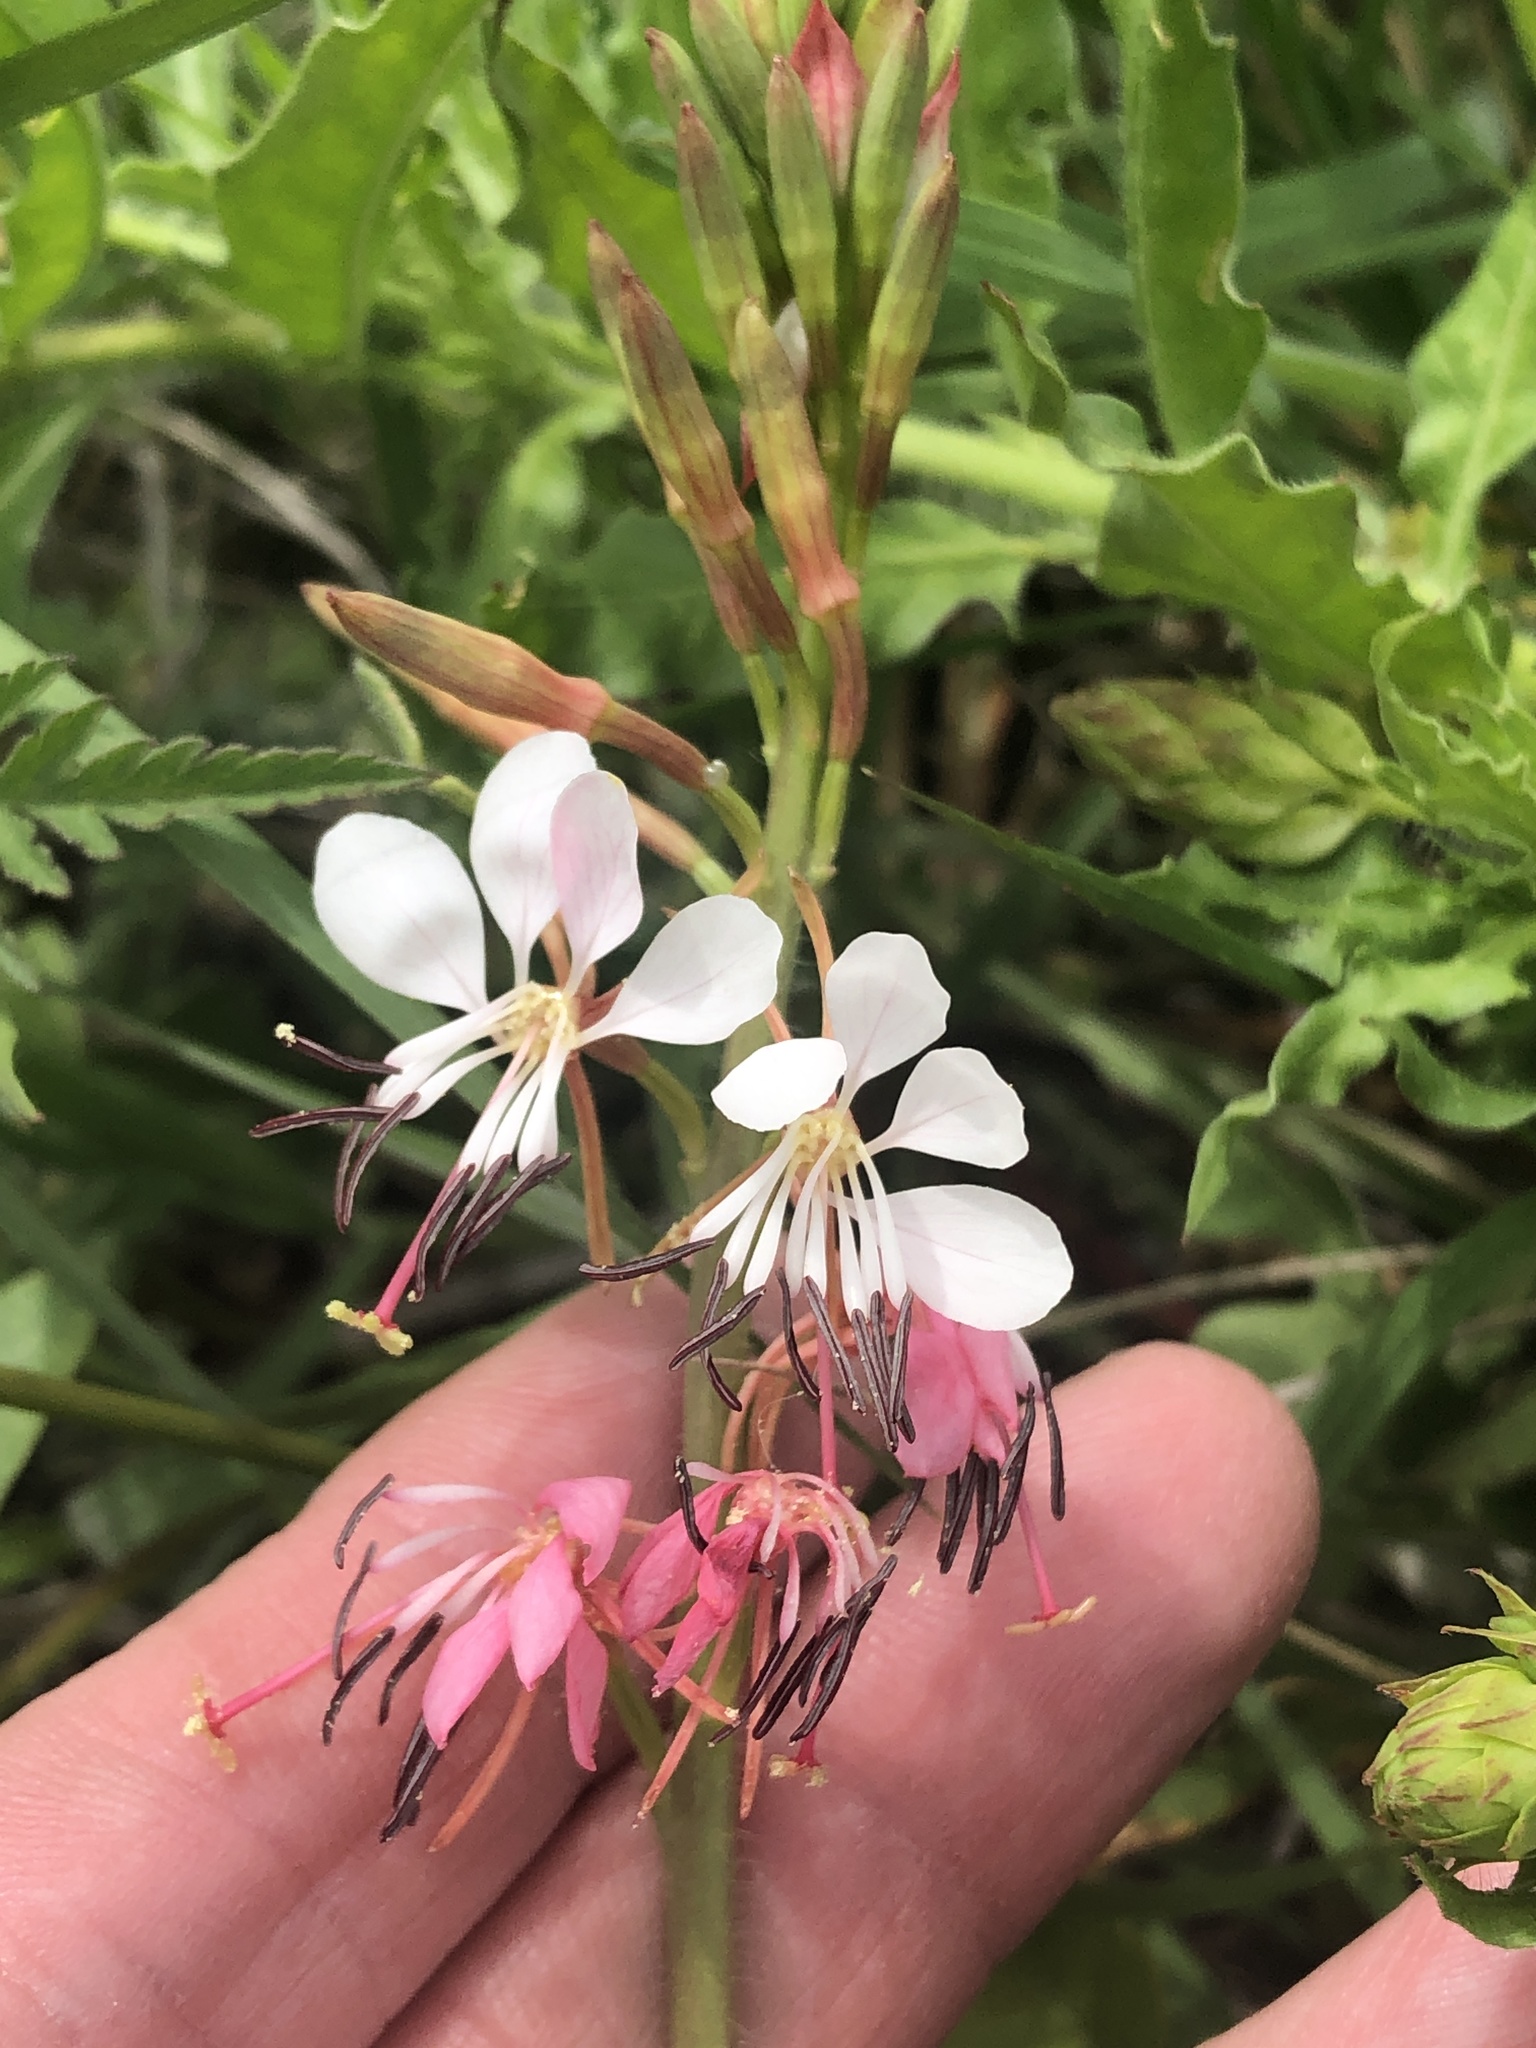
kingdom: Plantae
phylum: Tracheophyta
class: Magnoliopsida
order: Myrtales
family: Onagraceae
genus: Oenothera
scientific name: Oenothera suffulta
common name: Kisses
